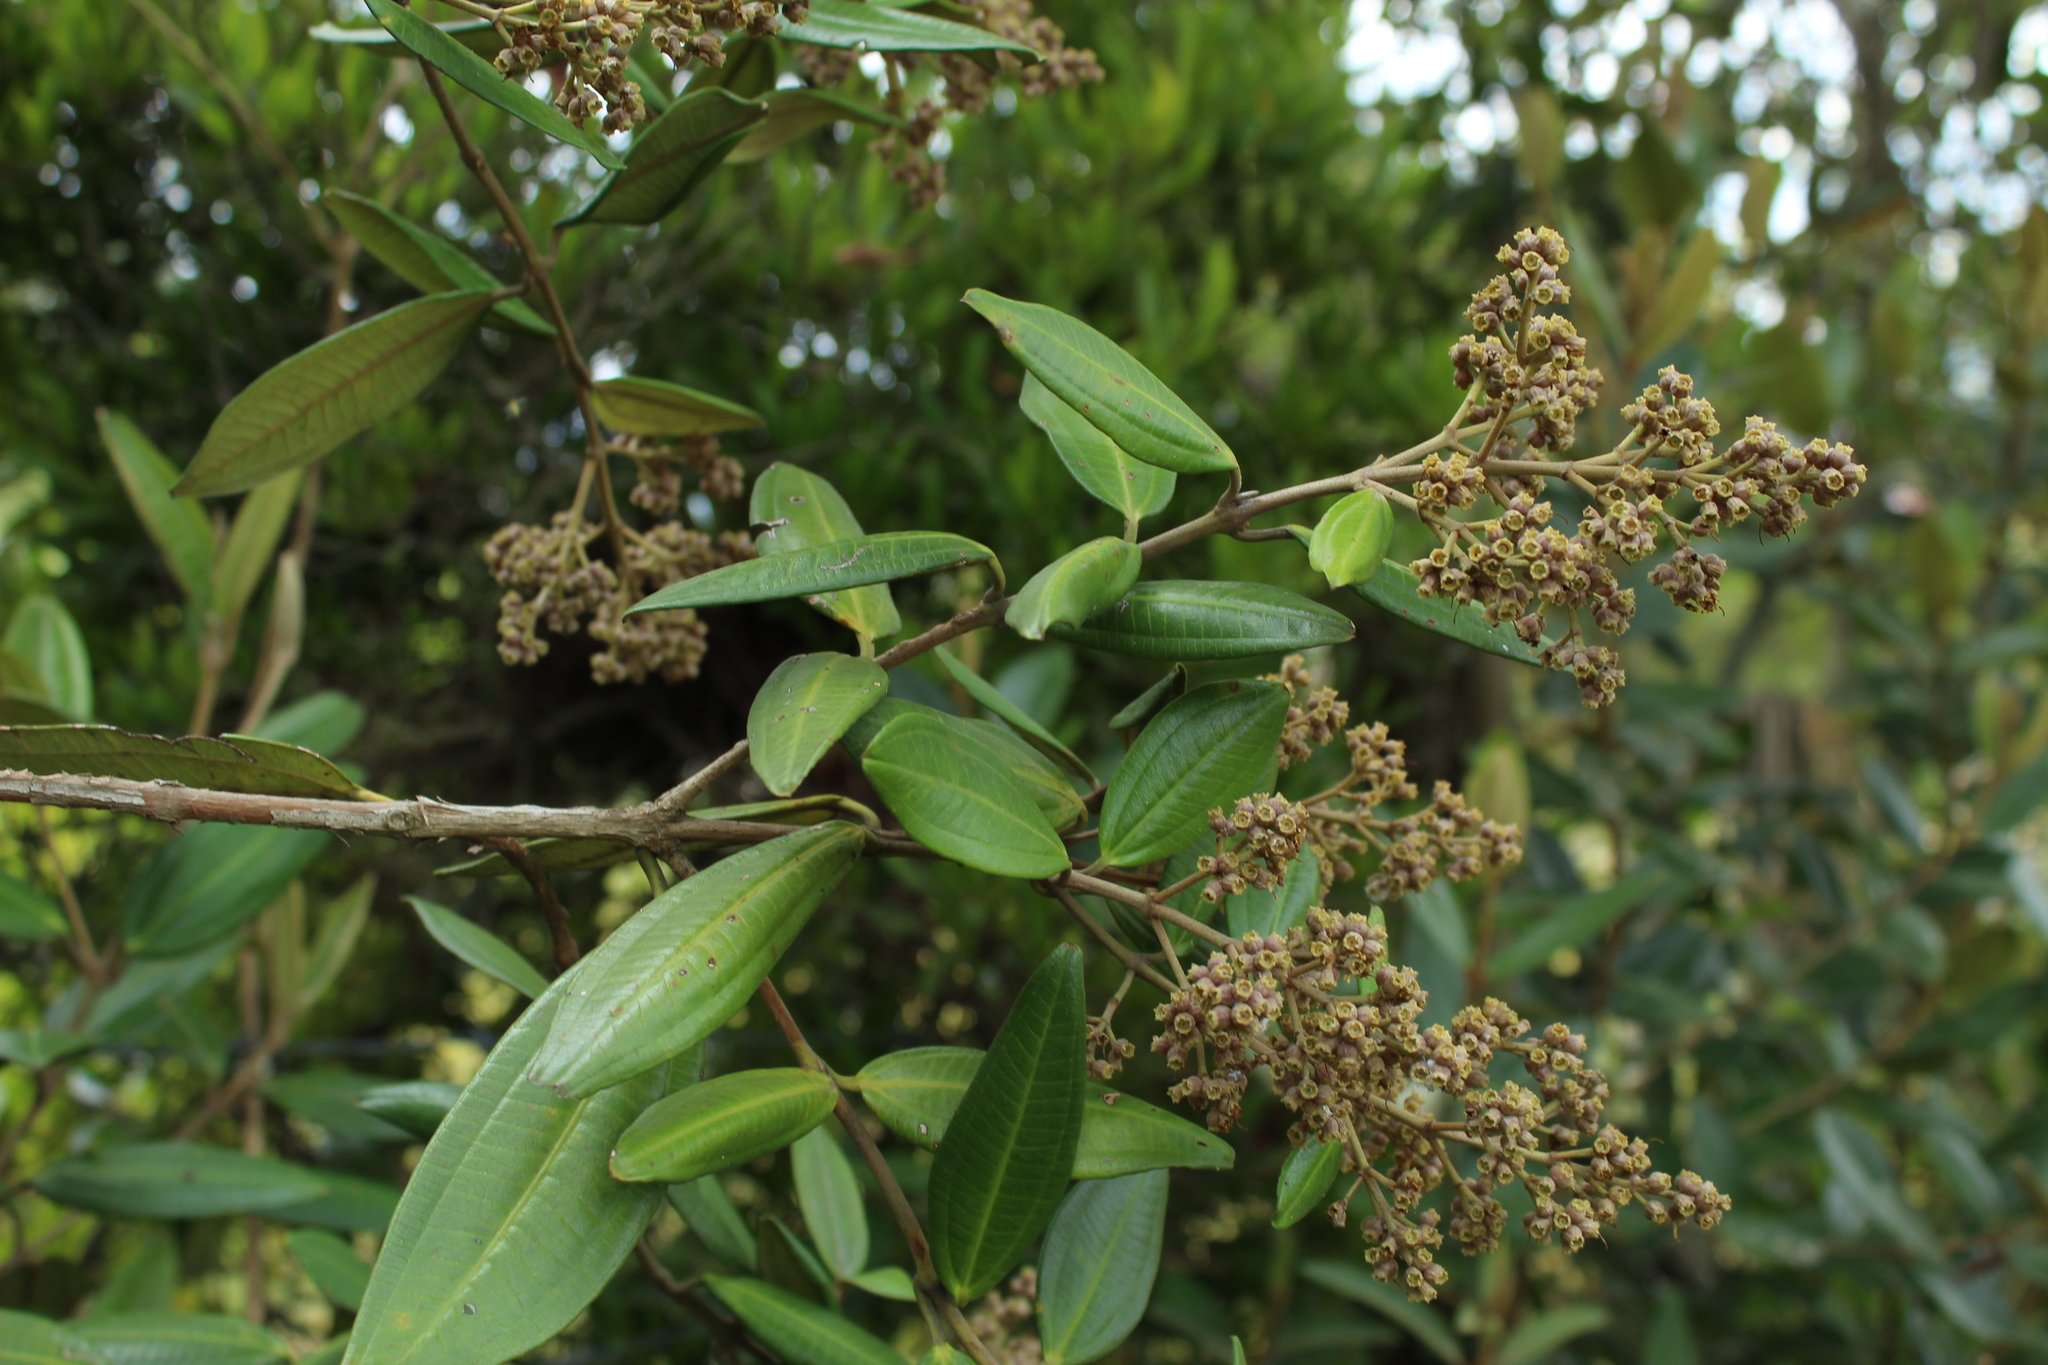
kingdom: Plantae
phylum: Tracheophyta
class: Magnoliopsida
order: Myrtales
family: Melastomataceae
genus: Miconia
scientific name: Miconia squamulosa
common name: Squamulose maya
